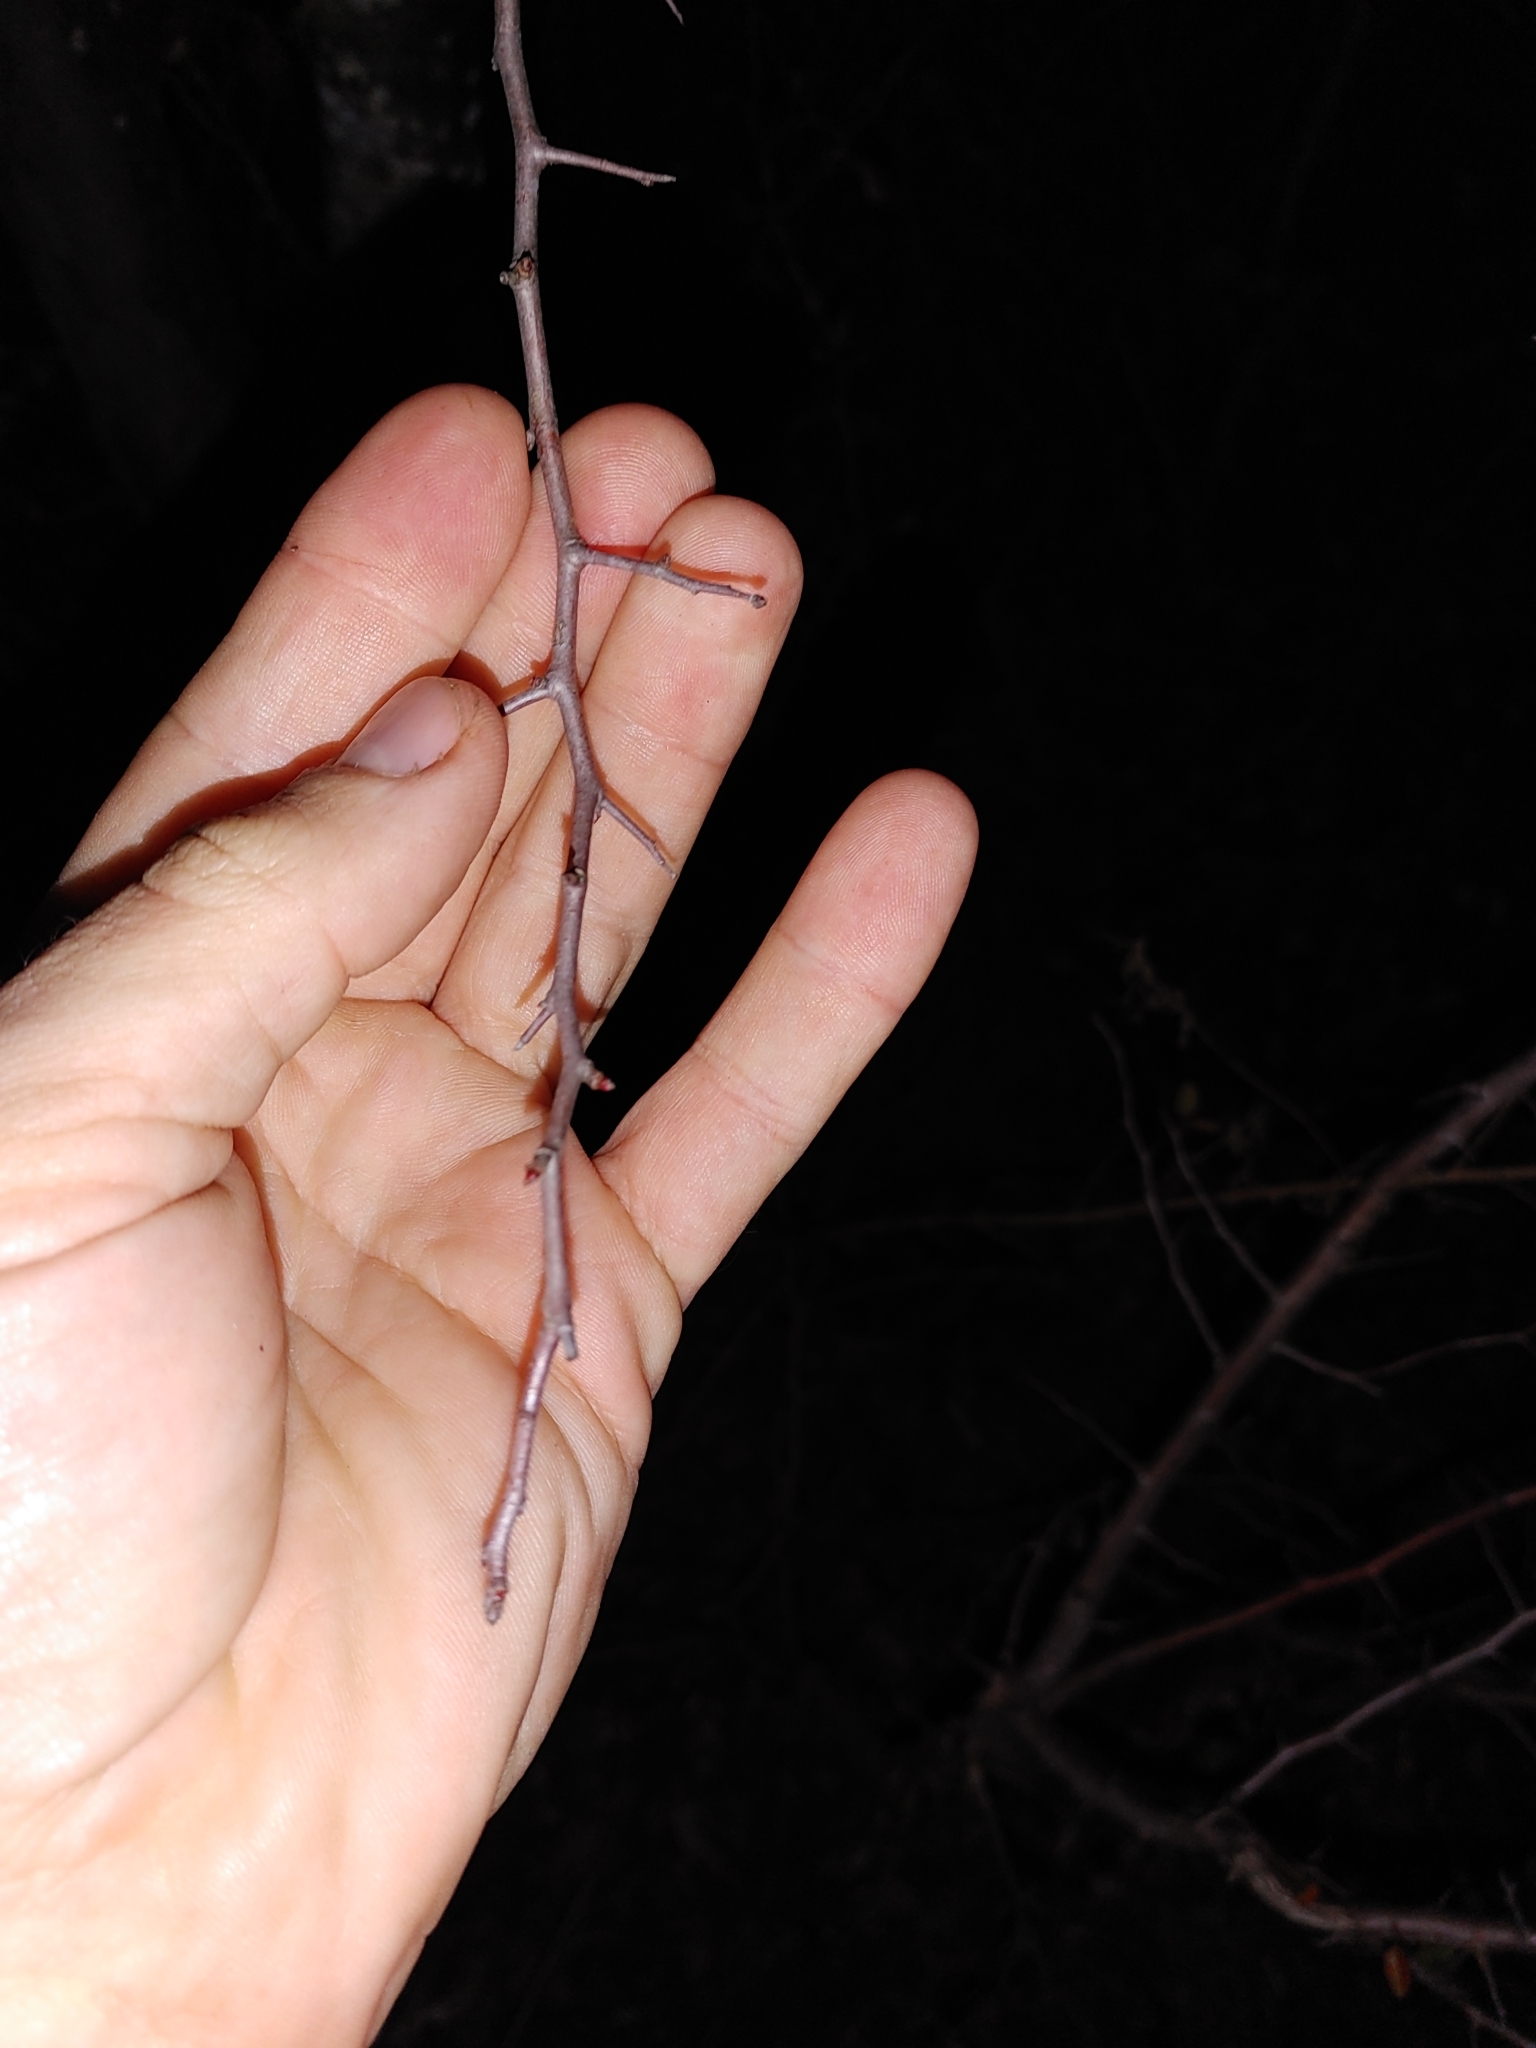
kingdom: Plantae
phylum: Tracheophyta
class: Magnoliopsida
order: Rosales
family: Rosaceae
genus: Malus
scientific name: Malus angustifolia
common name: Southern crab apple
